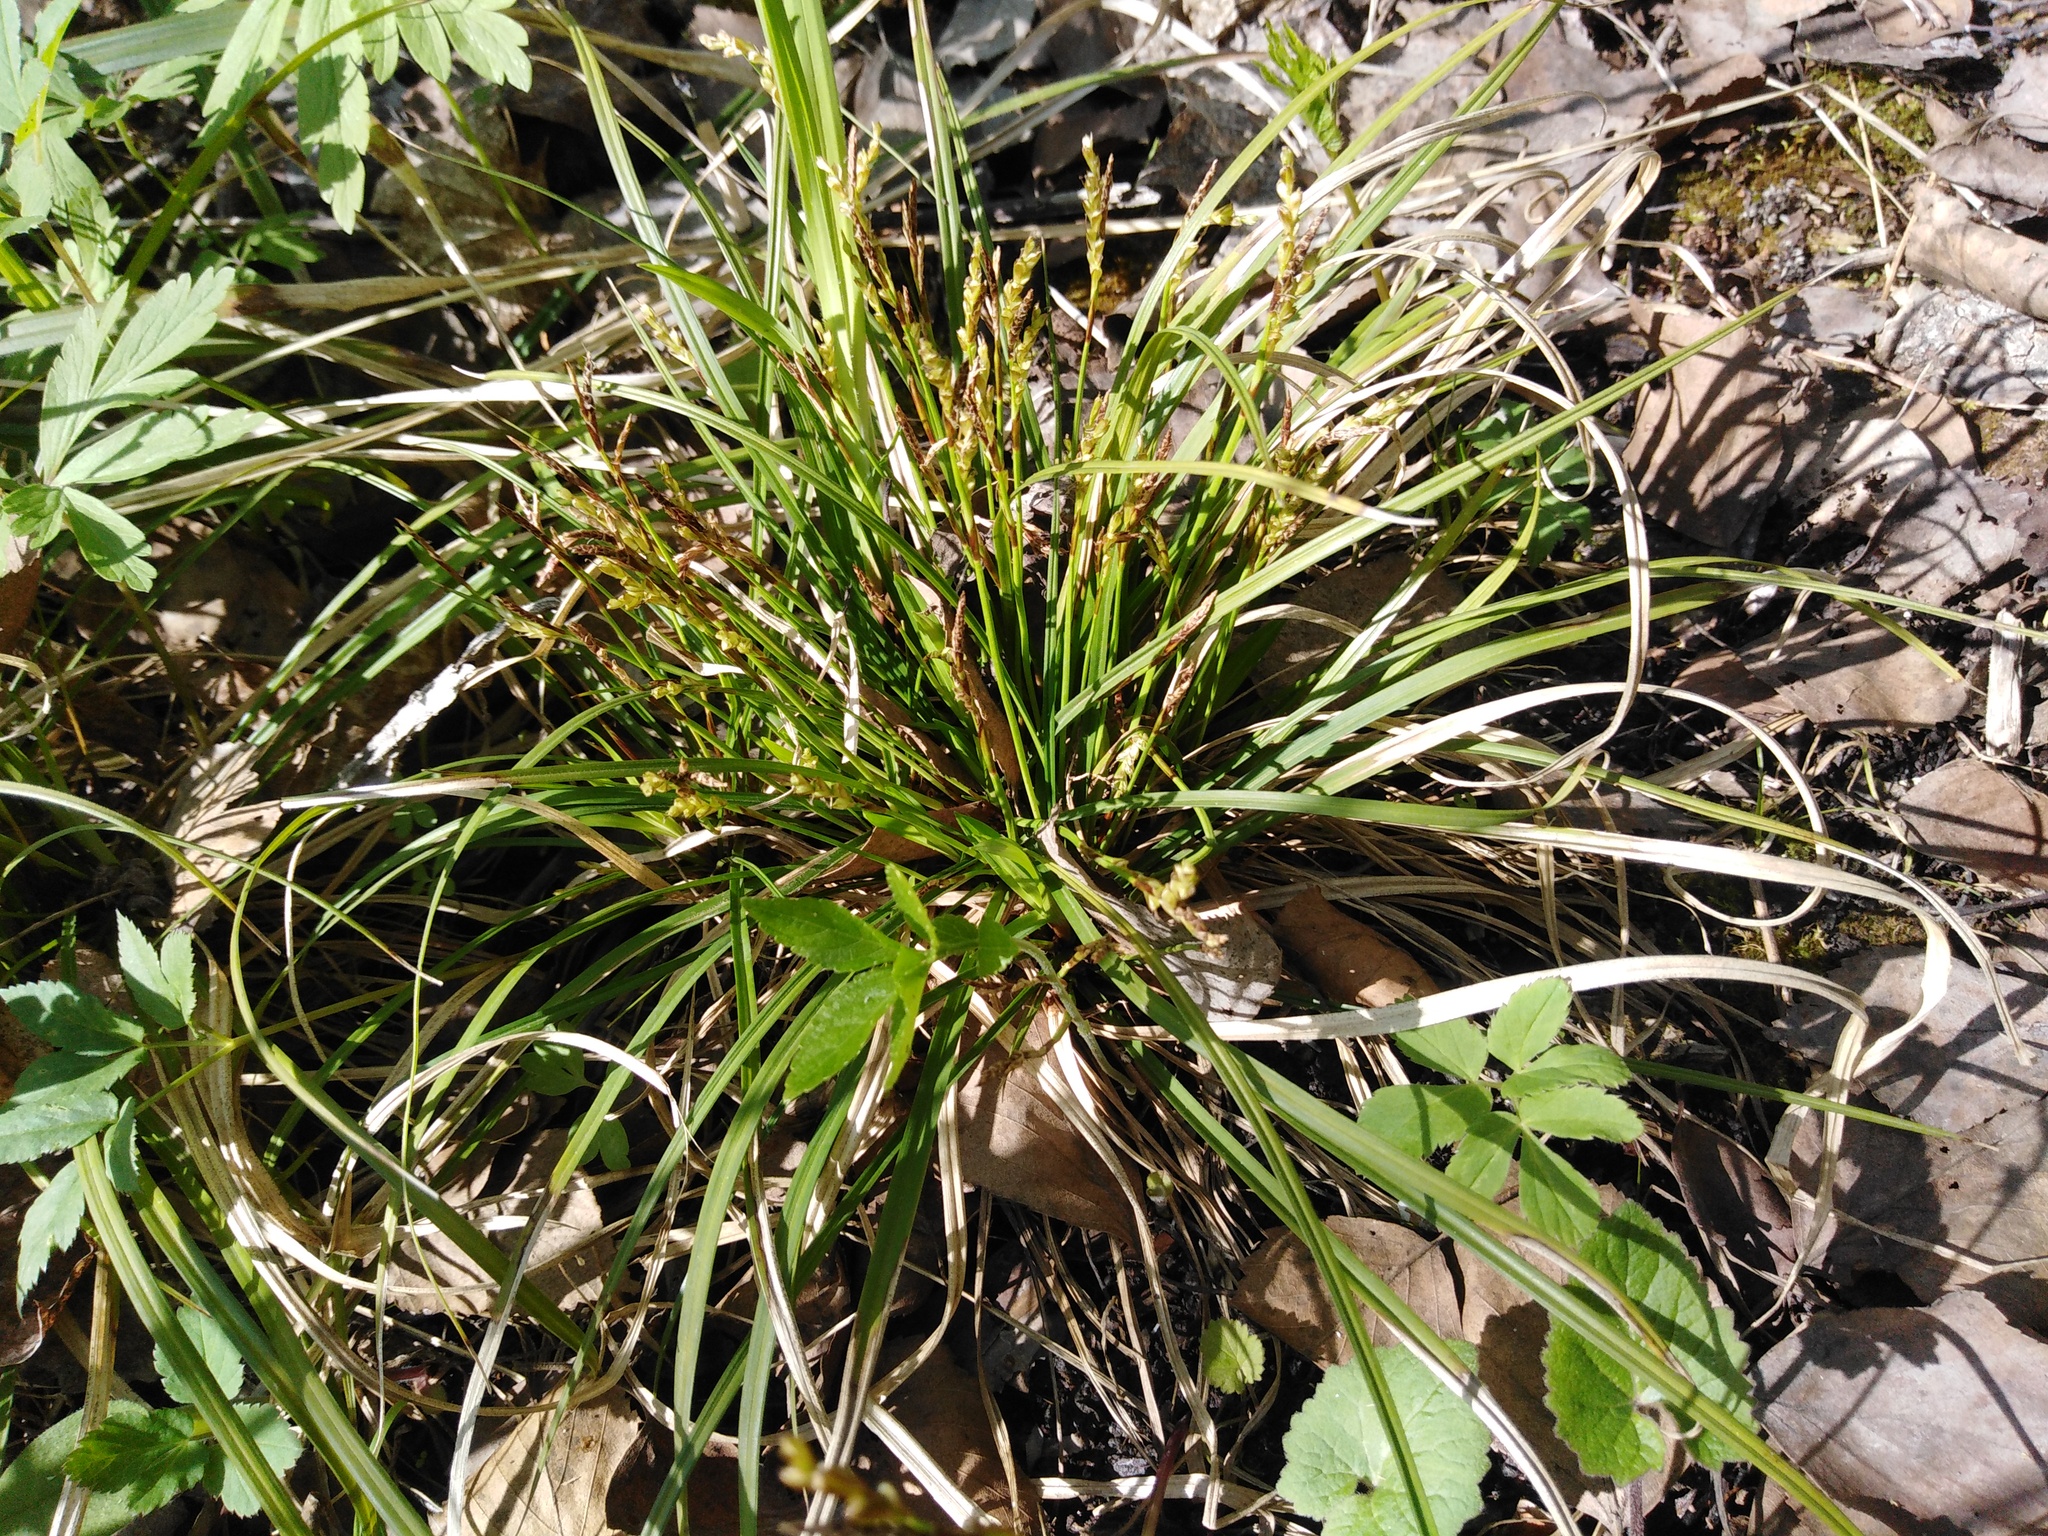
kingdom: Plantae
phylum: Tracheophyta
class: Liliopsida
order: Poales
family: Cyperaceae
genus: Carex
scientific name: Carex digitata
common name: Fingered sedge
